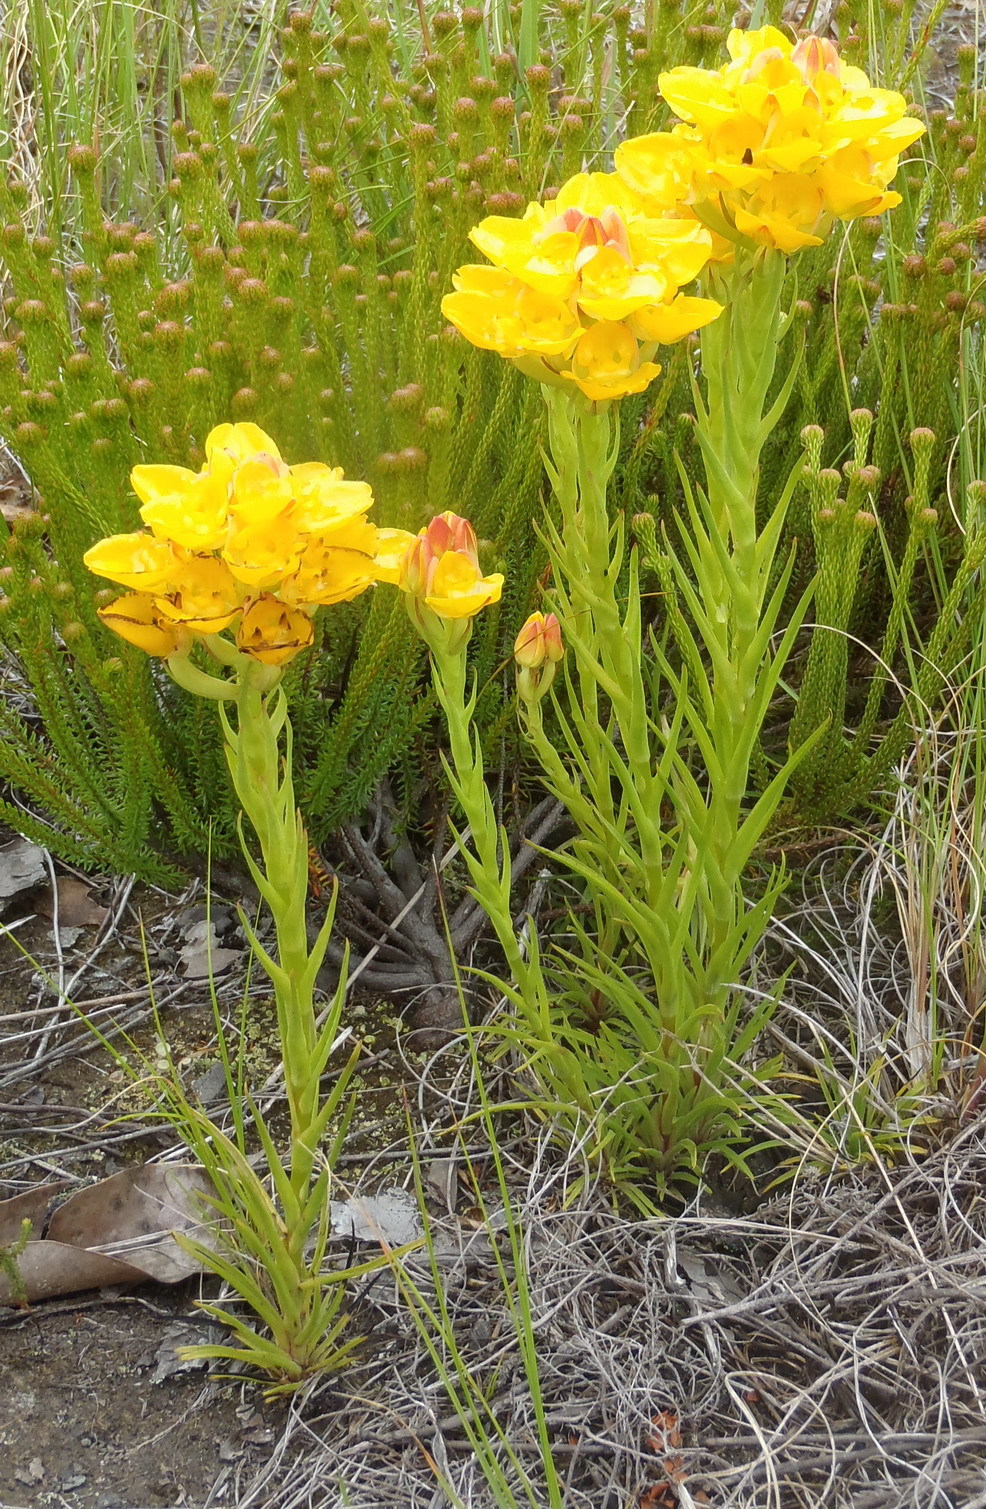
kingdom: Plantae
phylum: Tracheophyta
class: Liliopsida
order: Asparagales
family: Orchidaceae
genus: Ceratandra
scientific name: Ceratandra grandiflora
